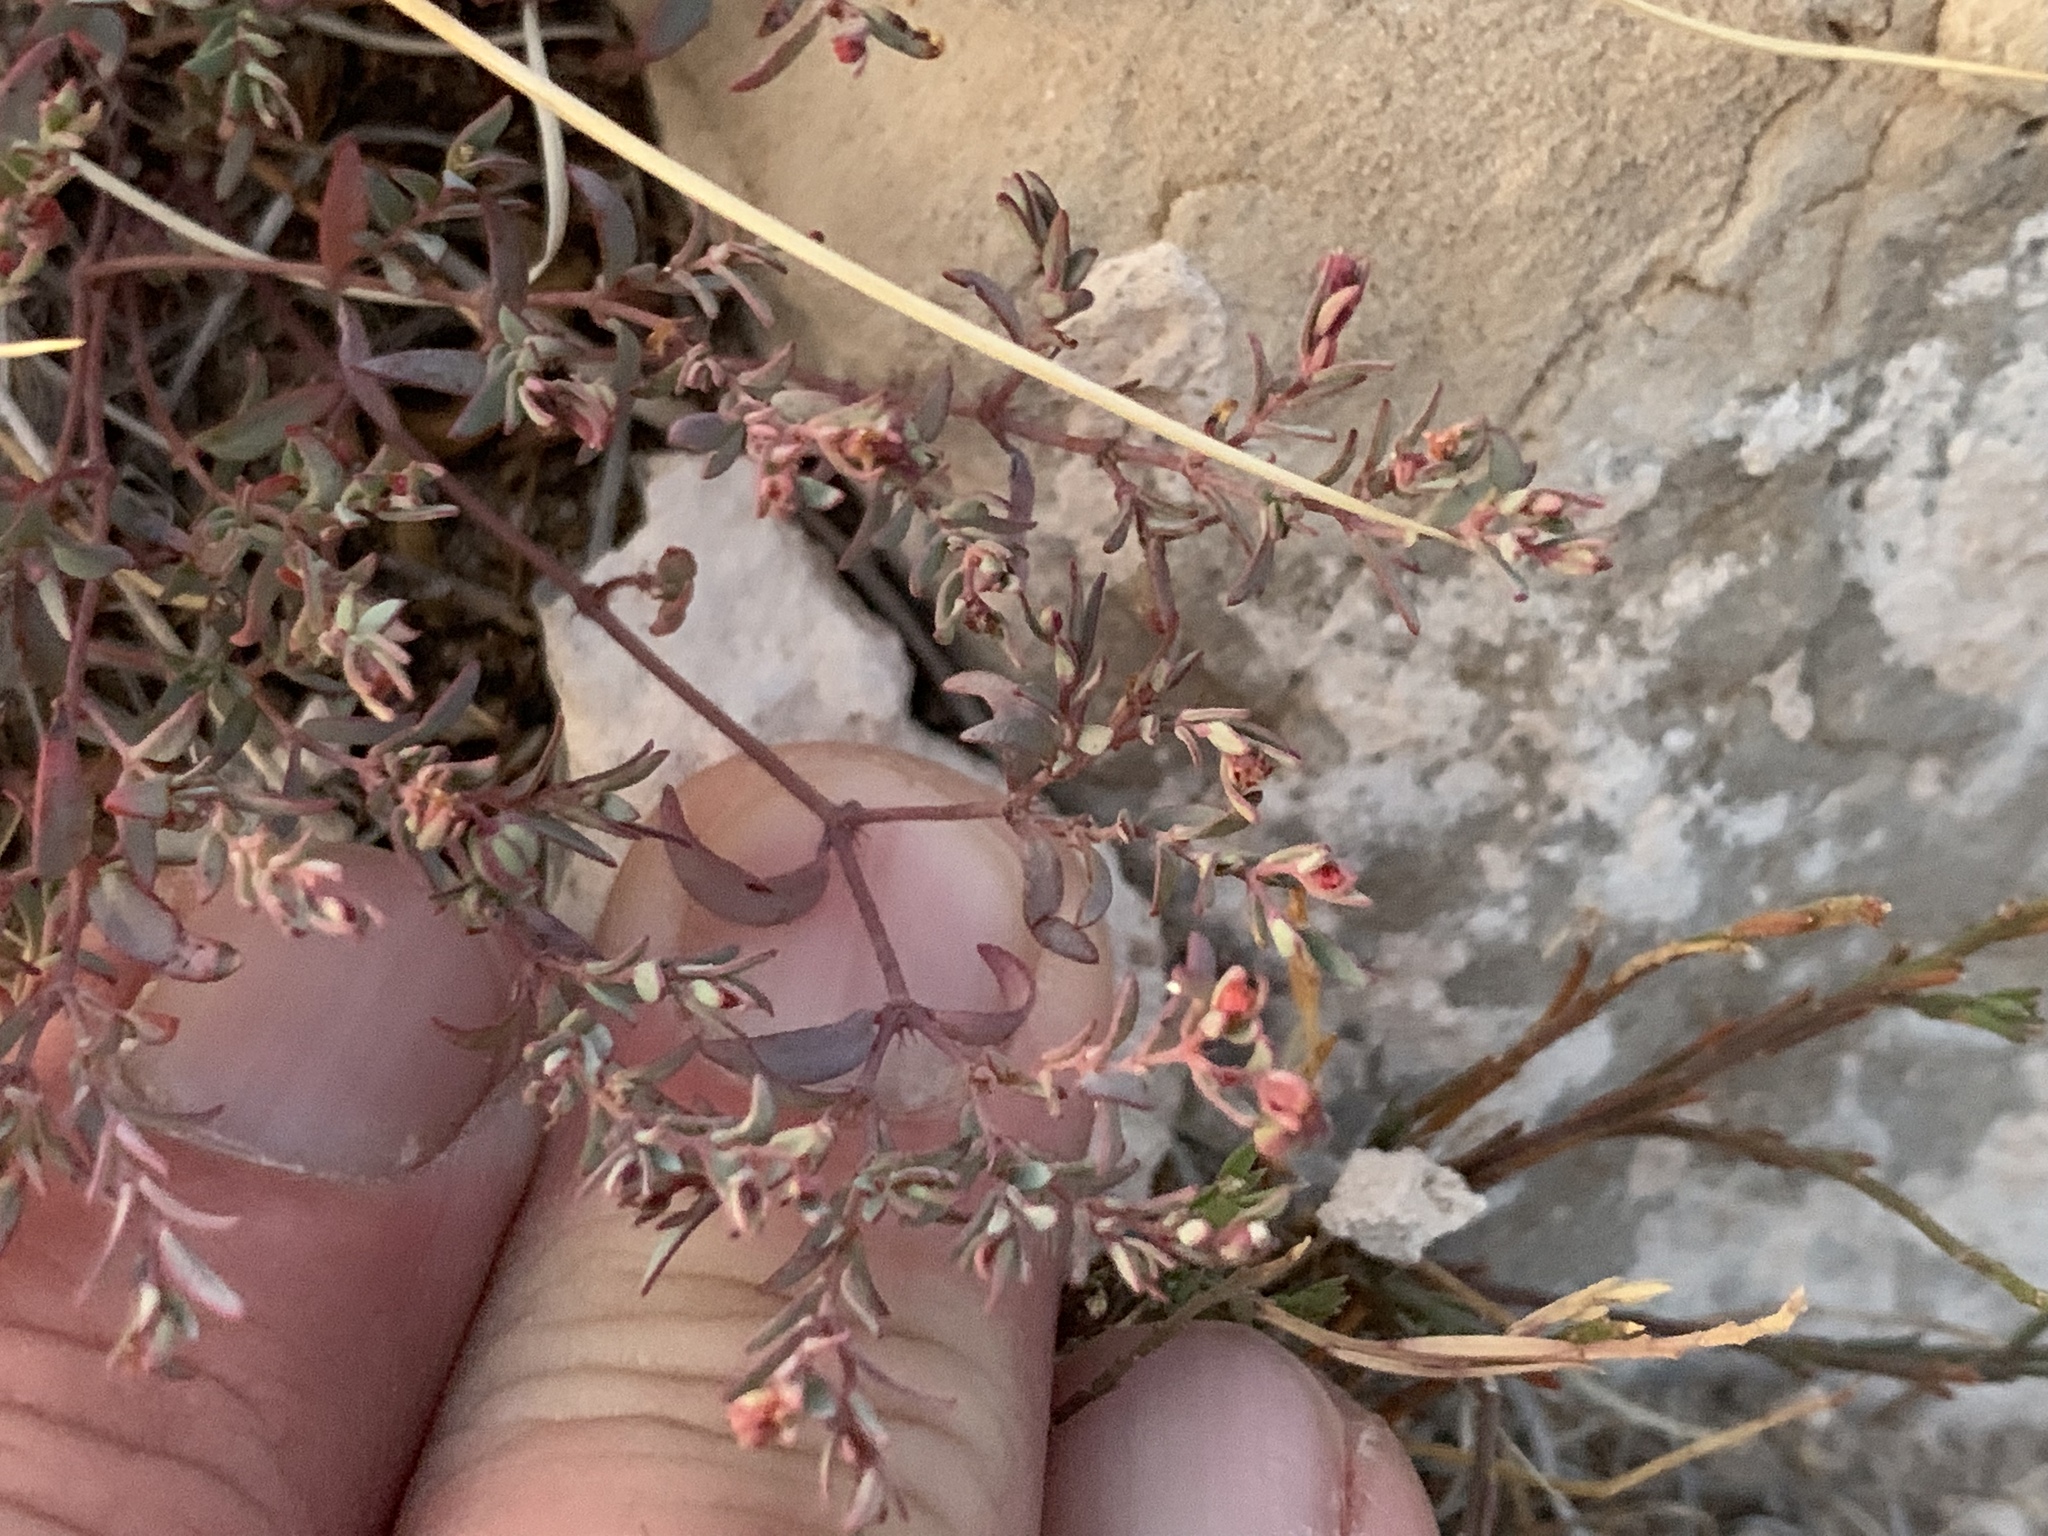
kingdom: Plantae
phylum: Tracheophyta
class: Magnoliopsida
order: Malpighiales
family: Euphorbiaceae
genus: Euphorbia
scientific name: Euphorbia chaetocalyx
